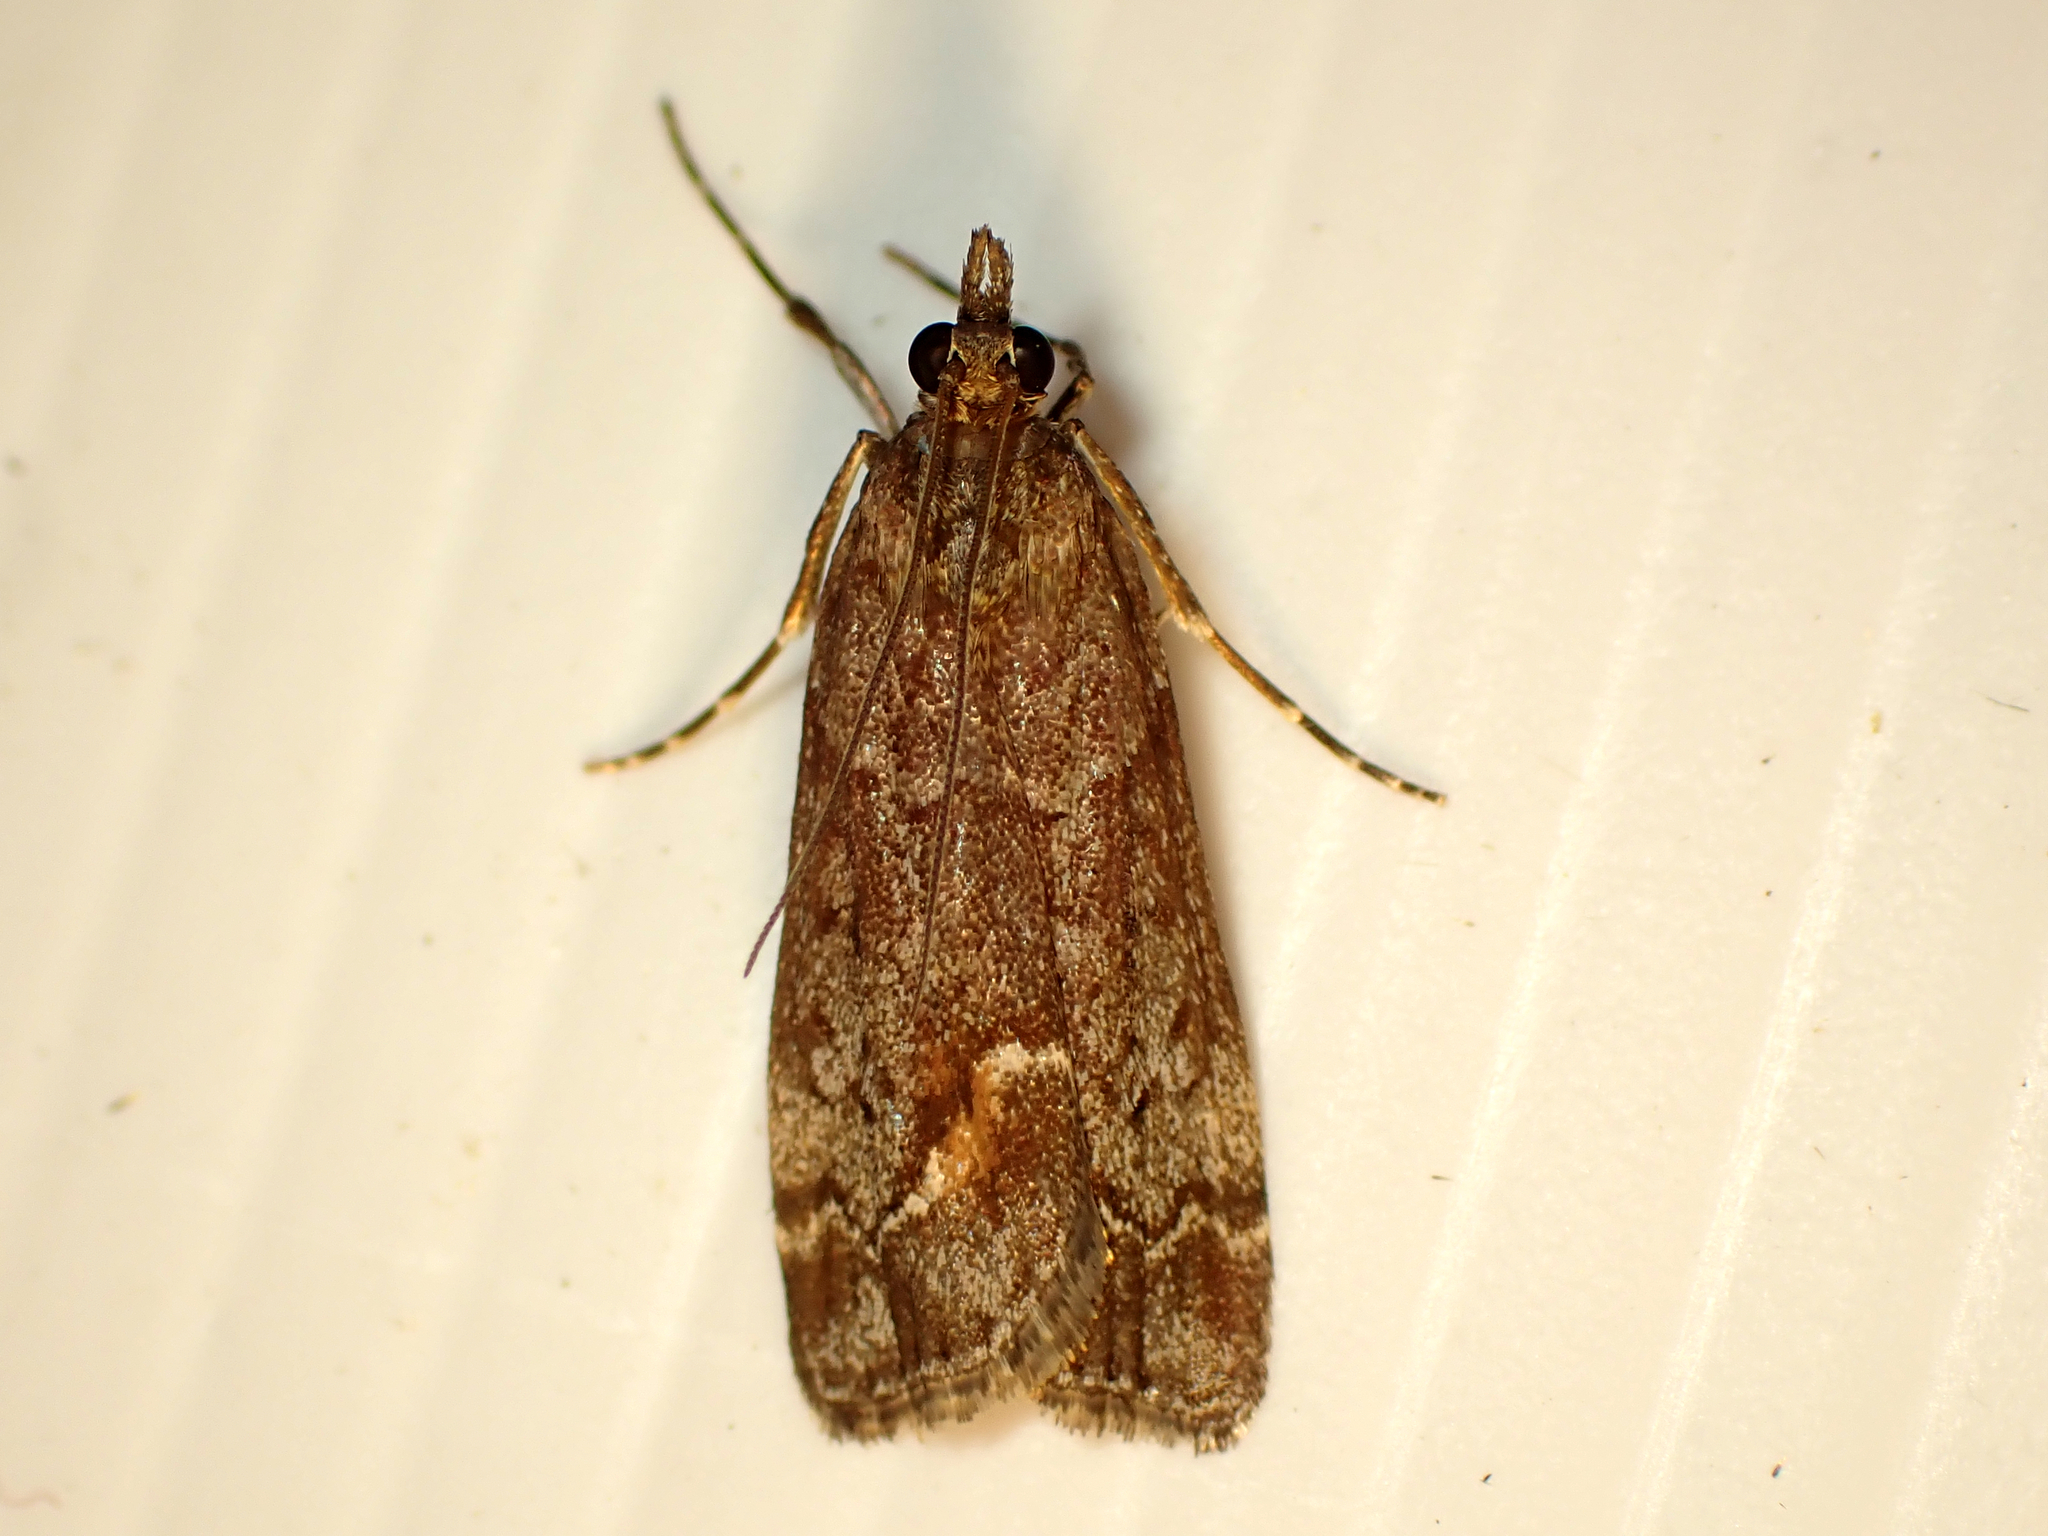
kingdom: Animalia
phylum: Arthropoda
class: Insecta
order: Lepidoptera
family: Crambidae
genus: Eudonia
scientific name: Eudonia submarginalis
